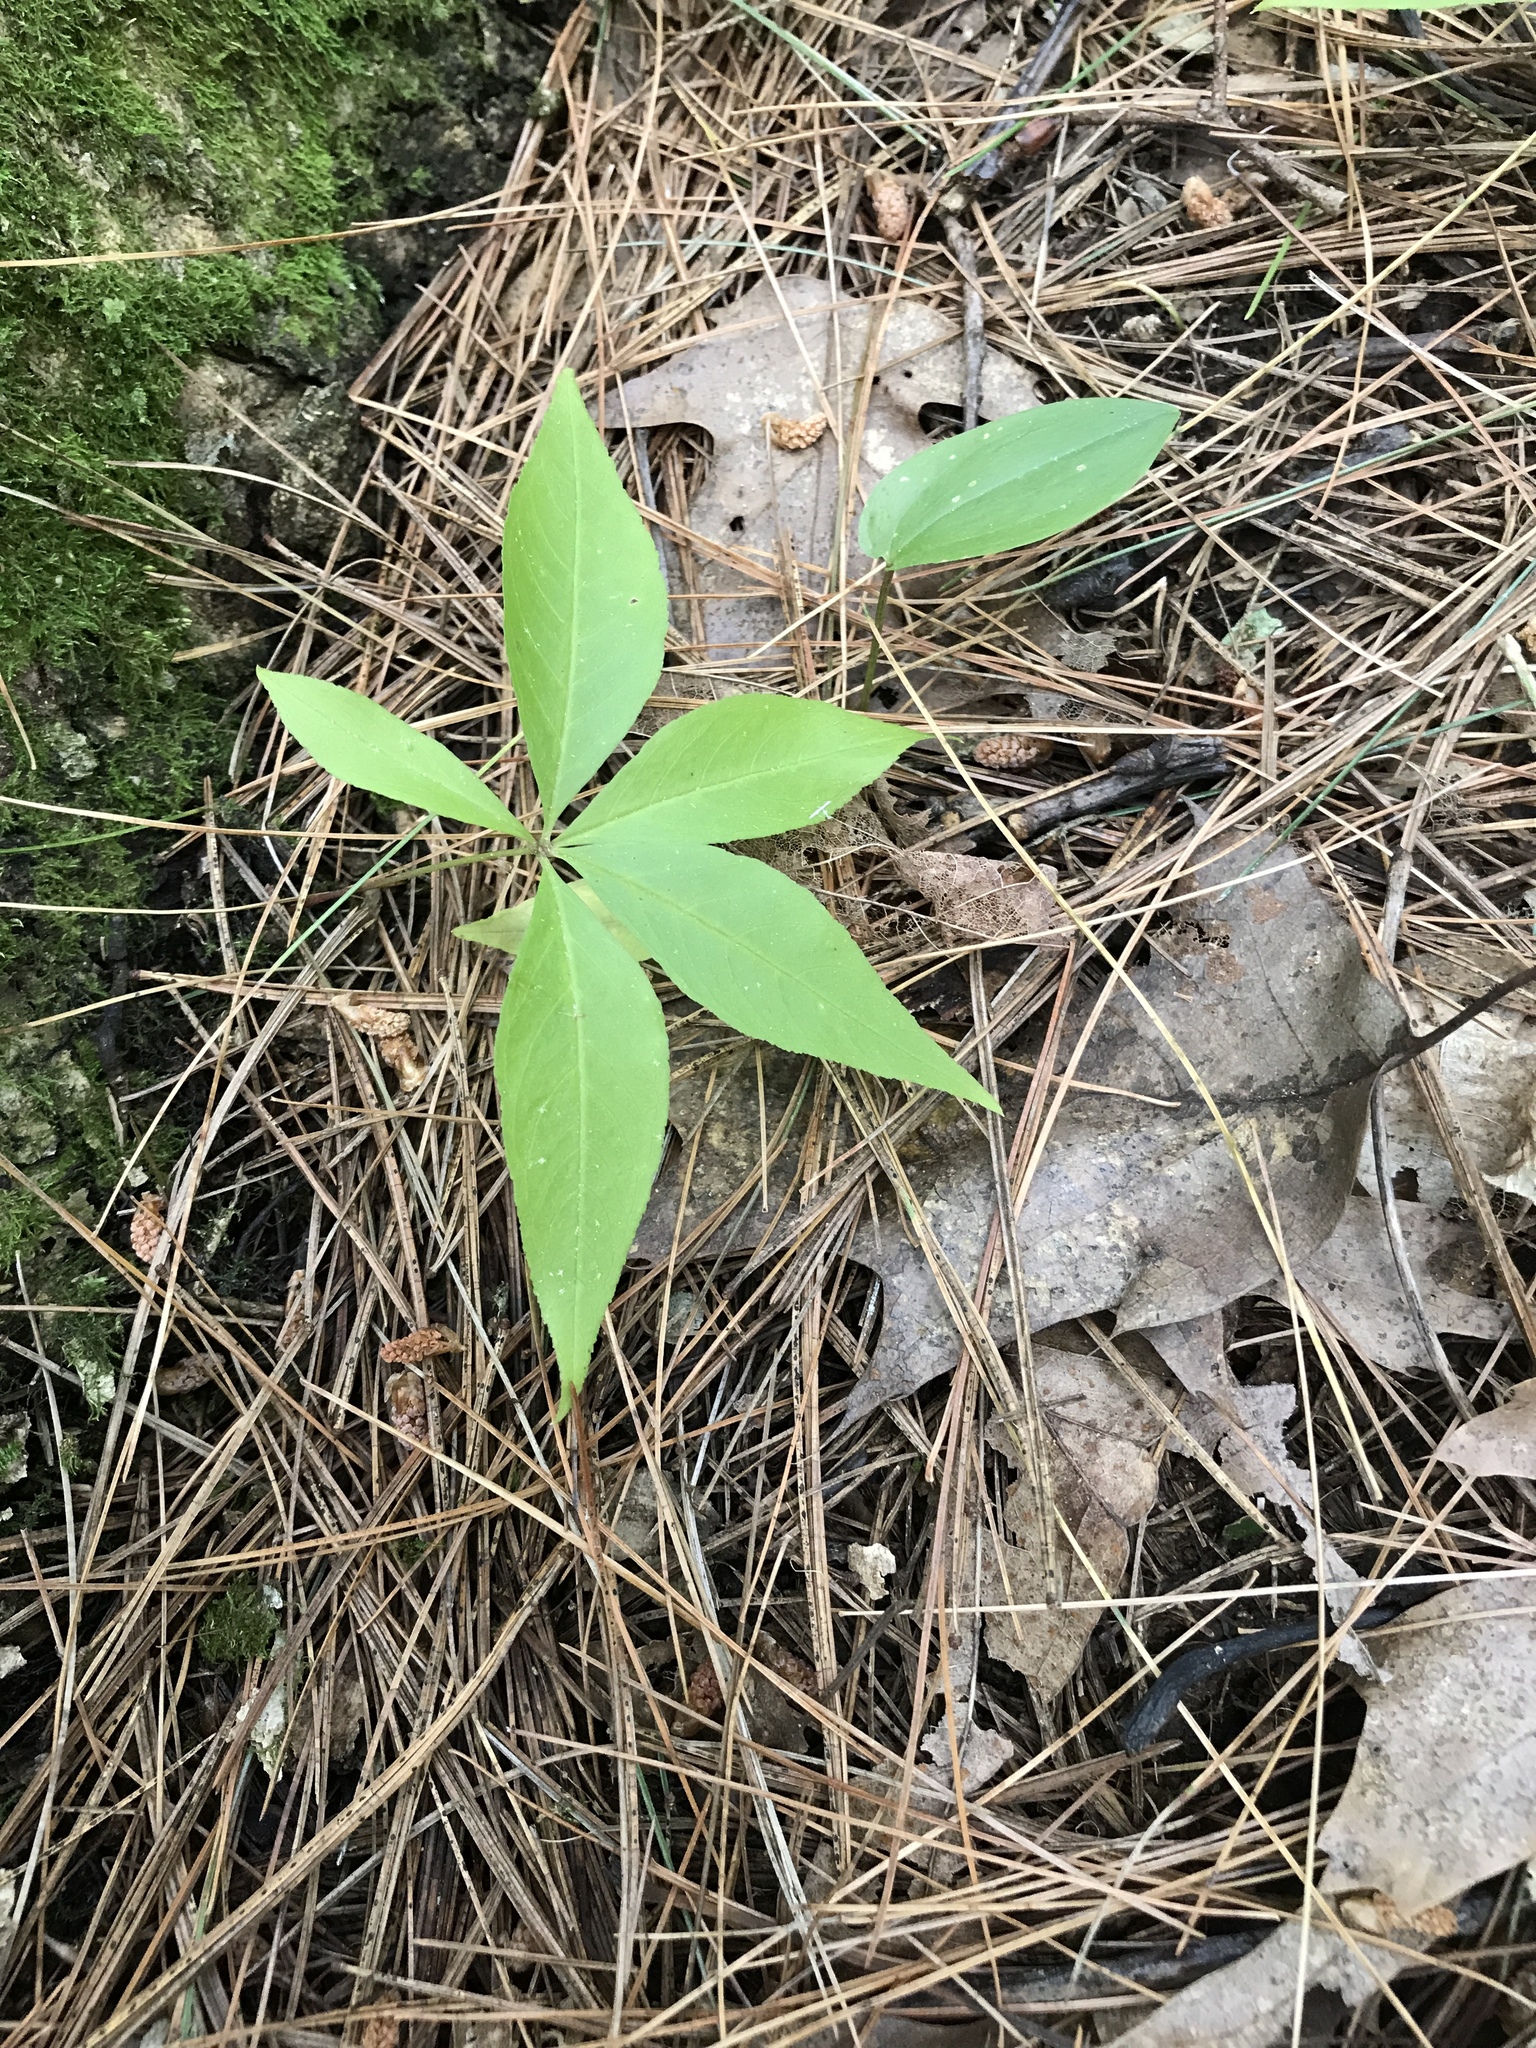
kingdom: Plantae
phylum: Tracheophyta
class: Magnoliopsida
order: Ericales
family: Primulaceae
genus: Lysimachia
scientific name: Lysimachia borealis
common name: American starflower
